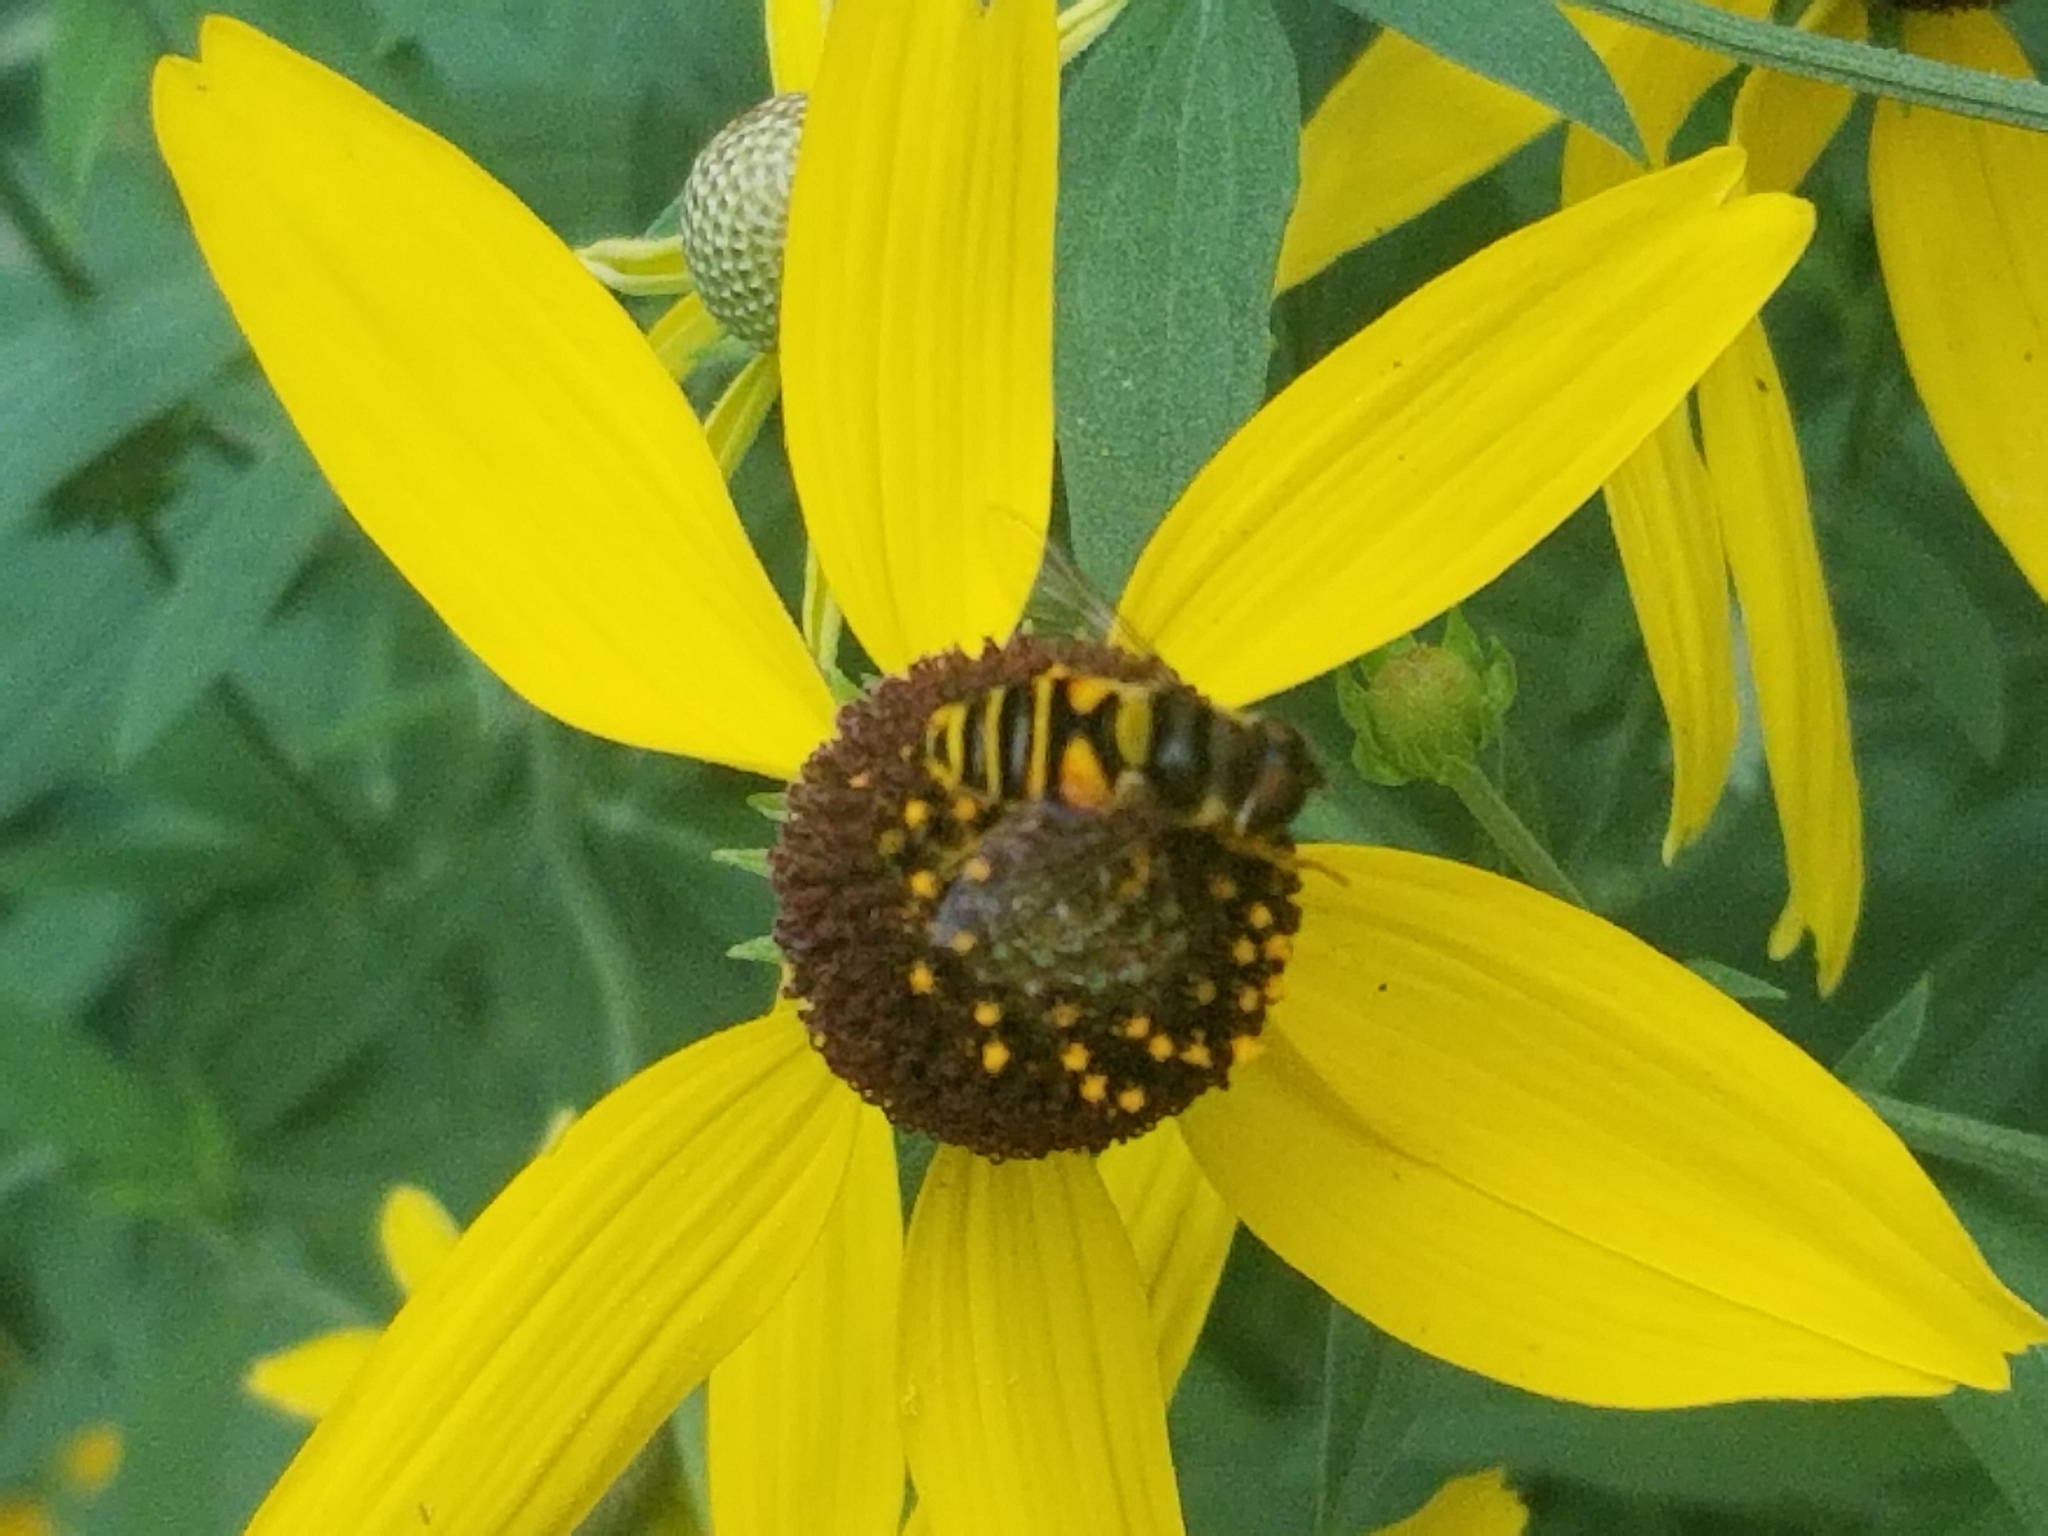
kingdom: Animalia
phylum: Arthropoda
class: Insecta
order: Diptera
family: Syrphidae
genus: Eristalis
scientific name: Eristalis transversa
